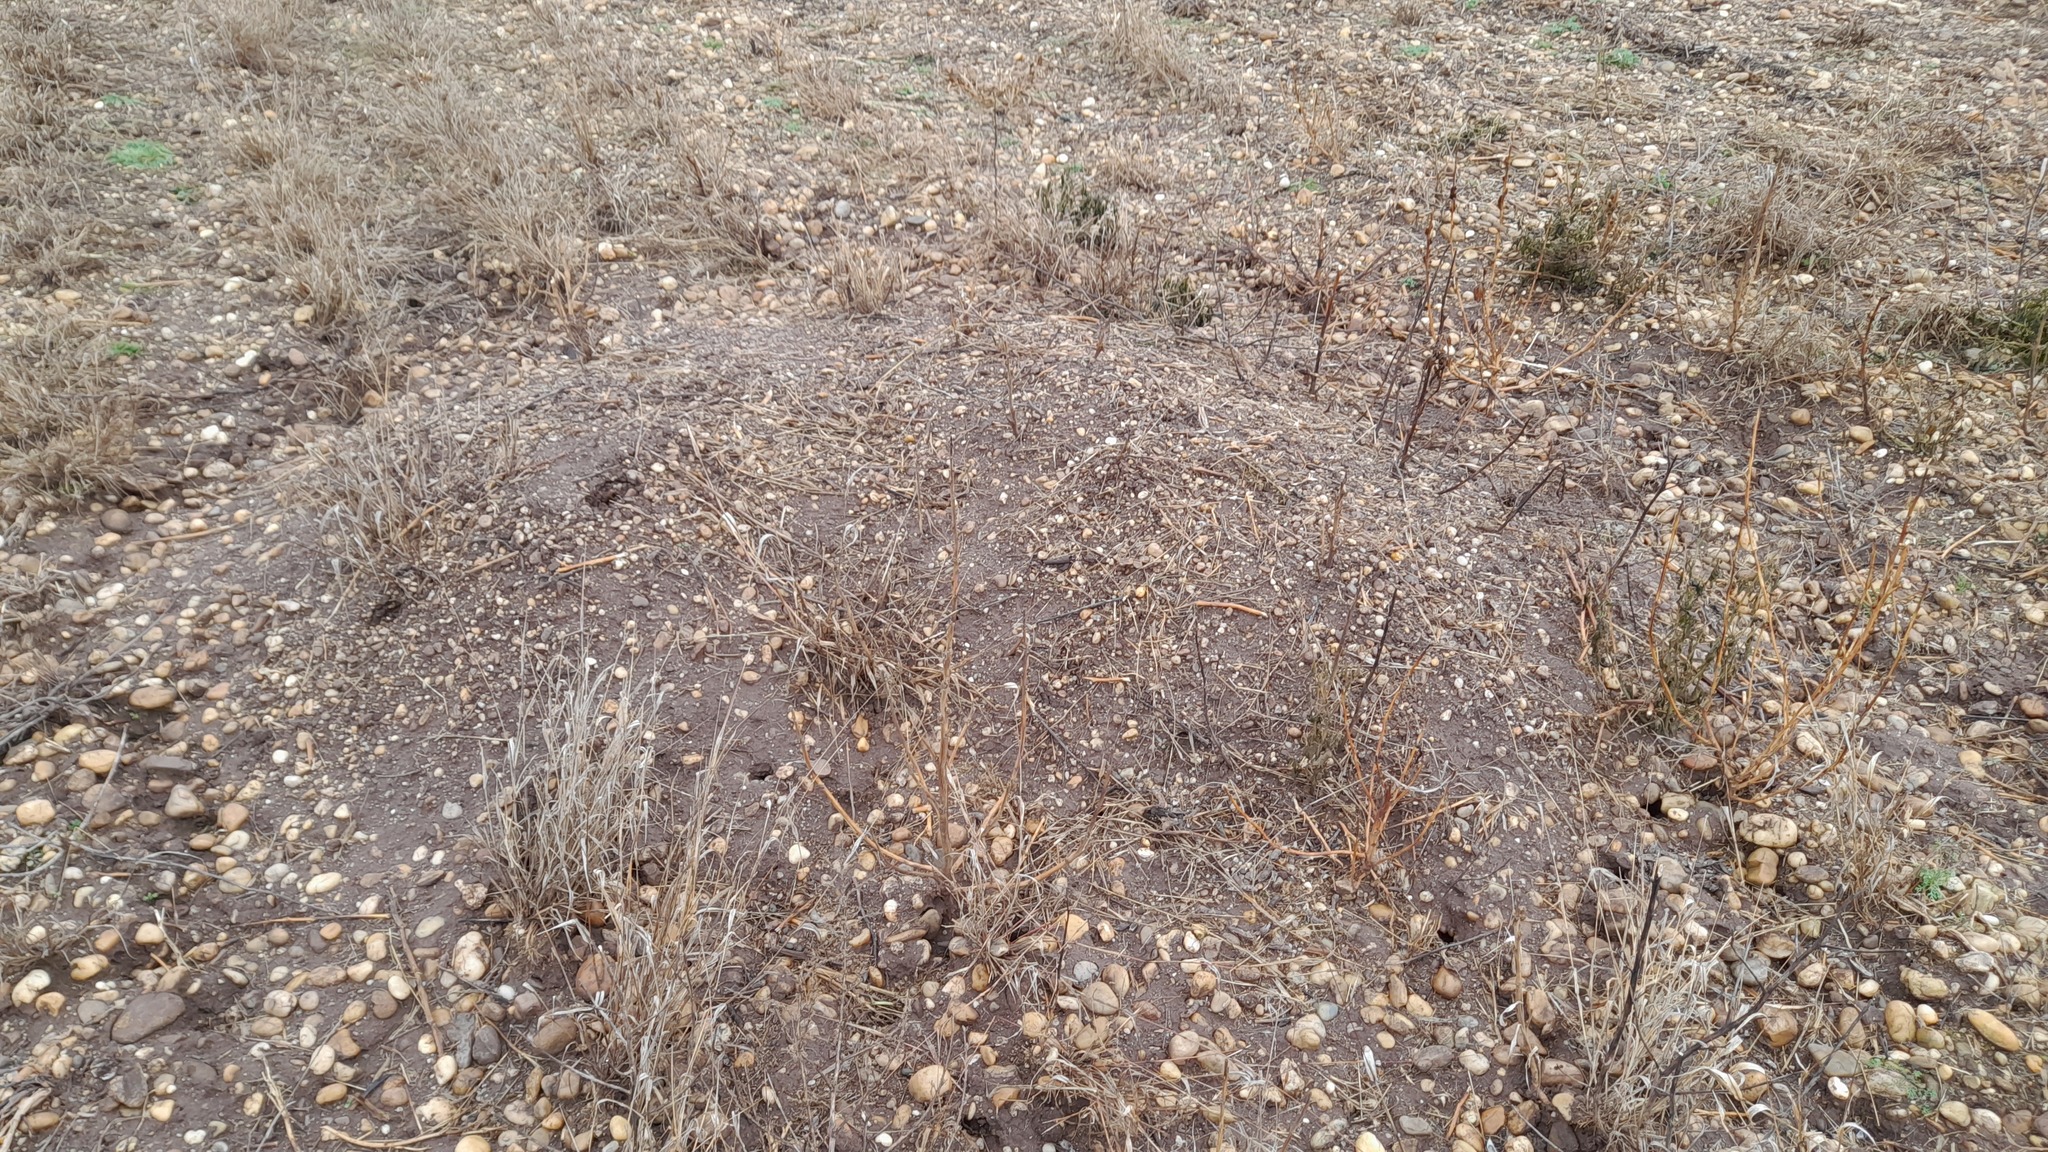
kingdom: Animalia
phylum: Chordata
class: Mammalia
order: Rodentia
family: Muridae
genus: Mus
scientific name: Mus spicilegus
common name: Mound-building mouse
